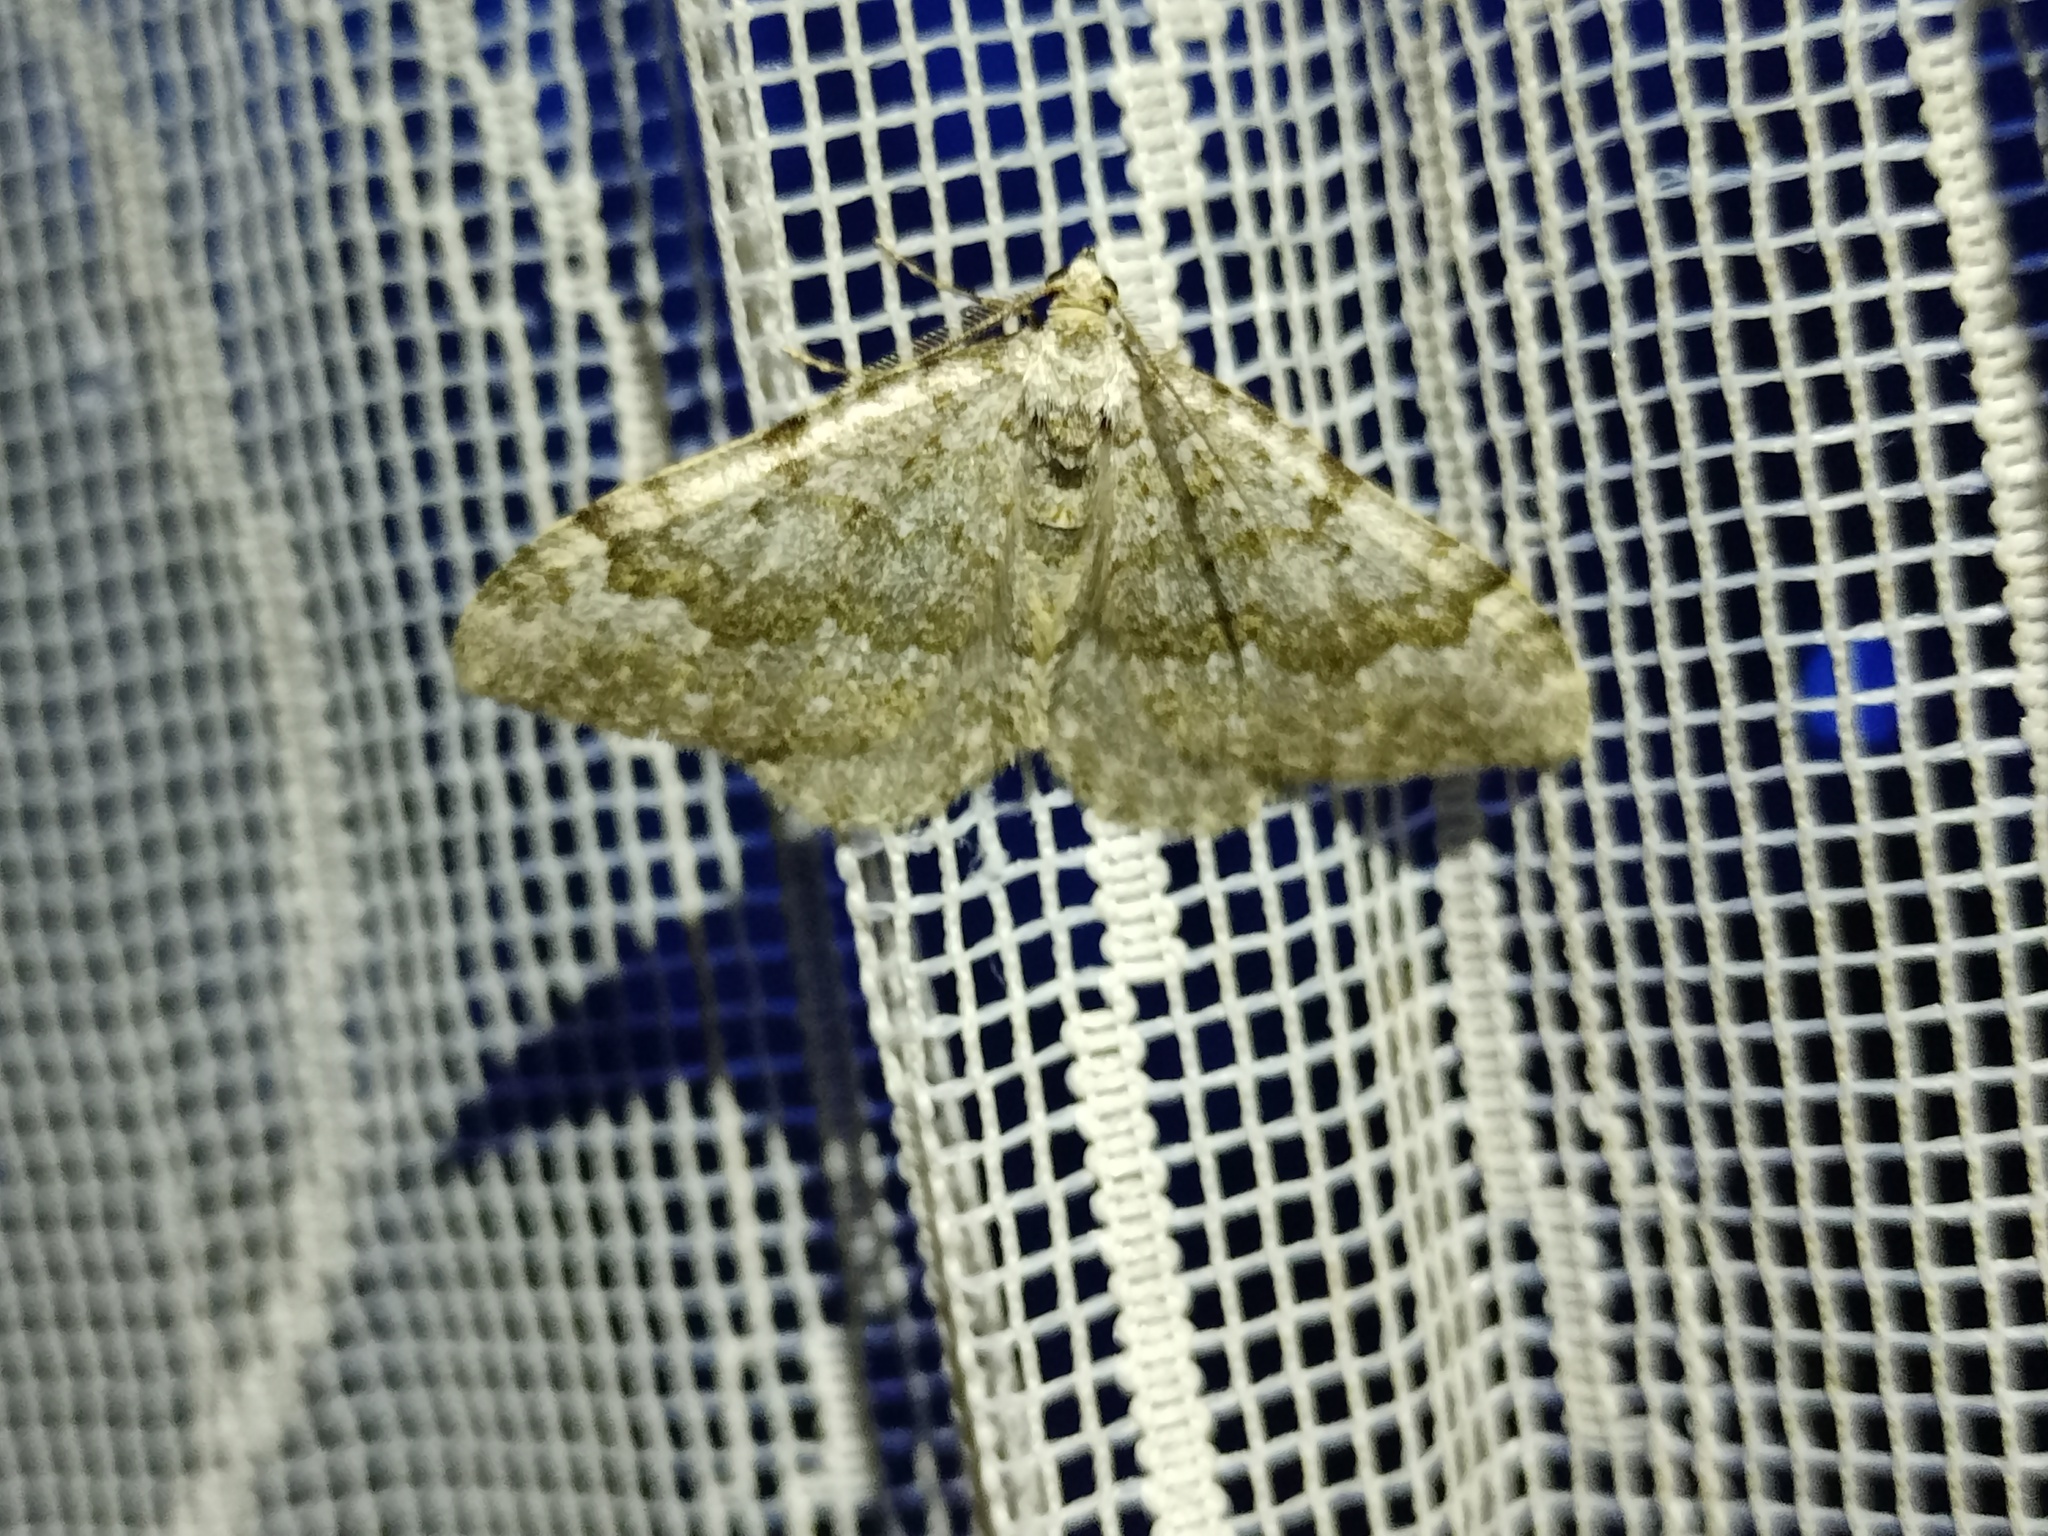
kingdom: Animalia
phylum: Arthropoda
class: Insecta
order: Lepidoptera
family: Geometridae
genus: Nebula
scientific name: Nebula salicata
